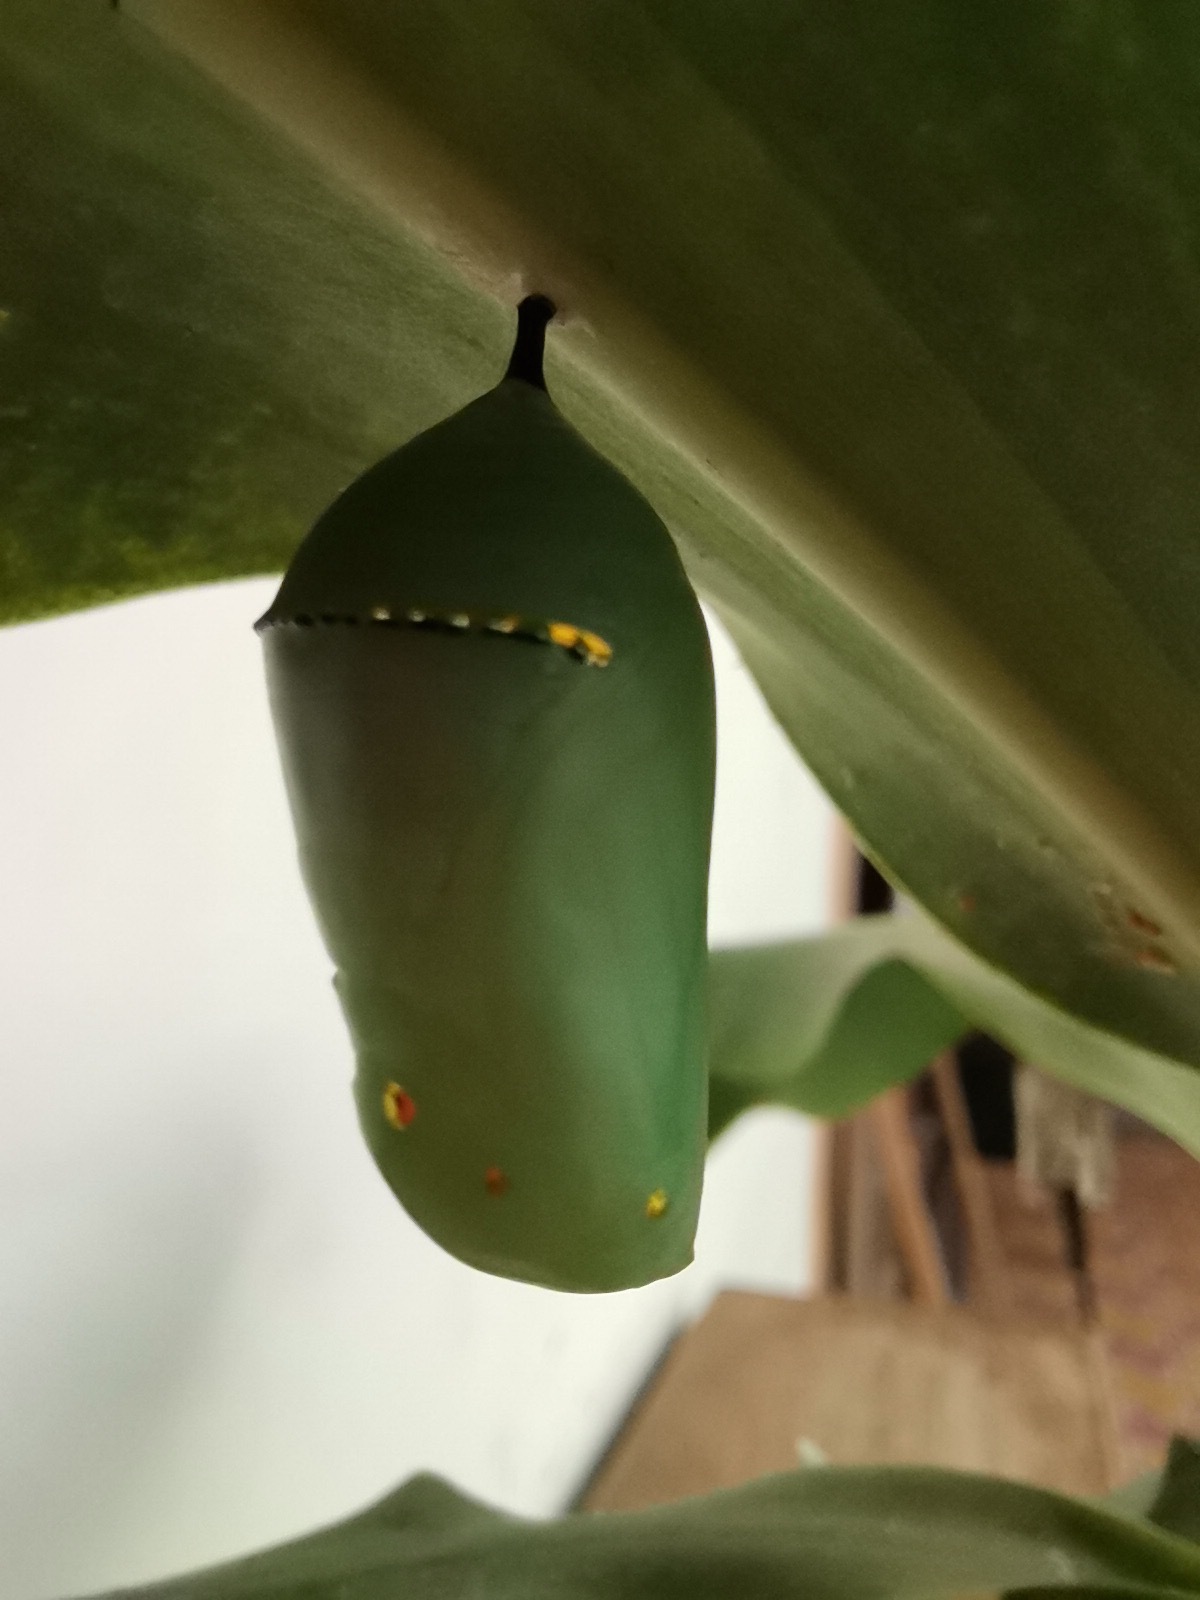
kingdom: Animalia
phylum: Arthropoda
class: Insecta
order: Lepidoptera
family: Nymphalidae
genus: Danaus
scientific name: Danaus plexippus
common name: Monarch
